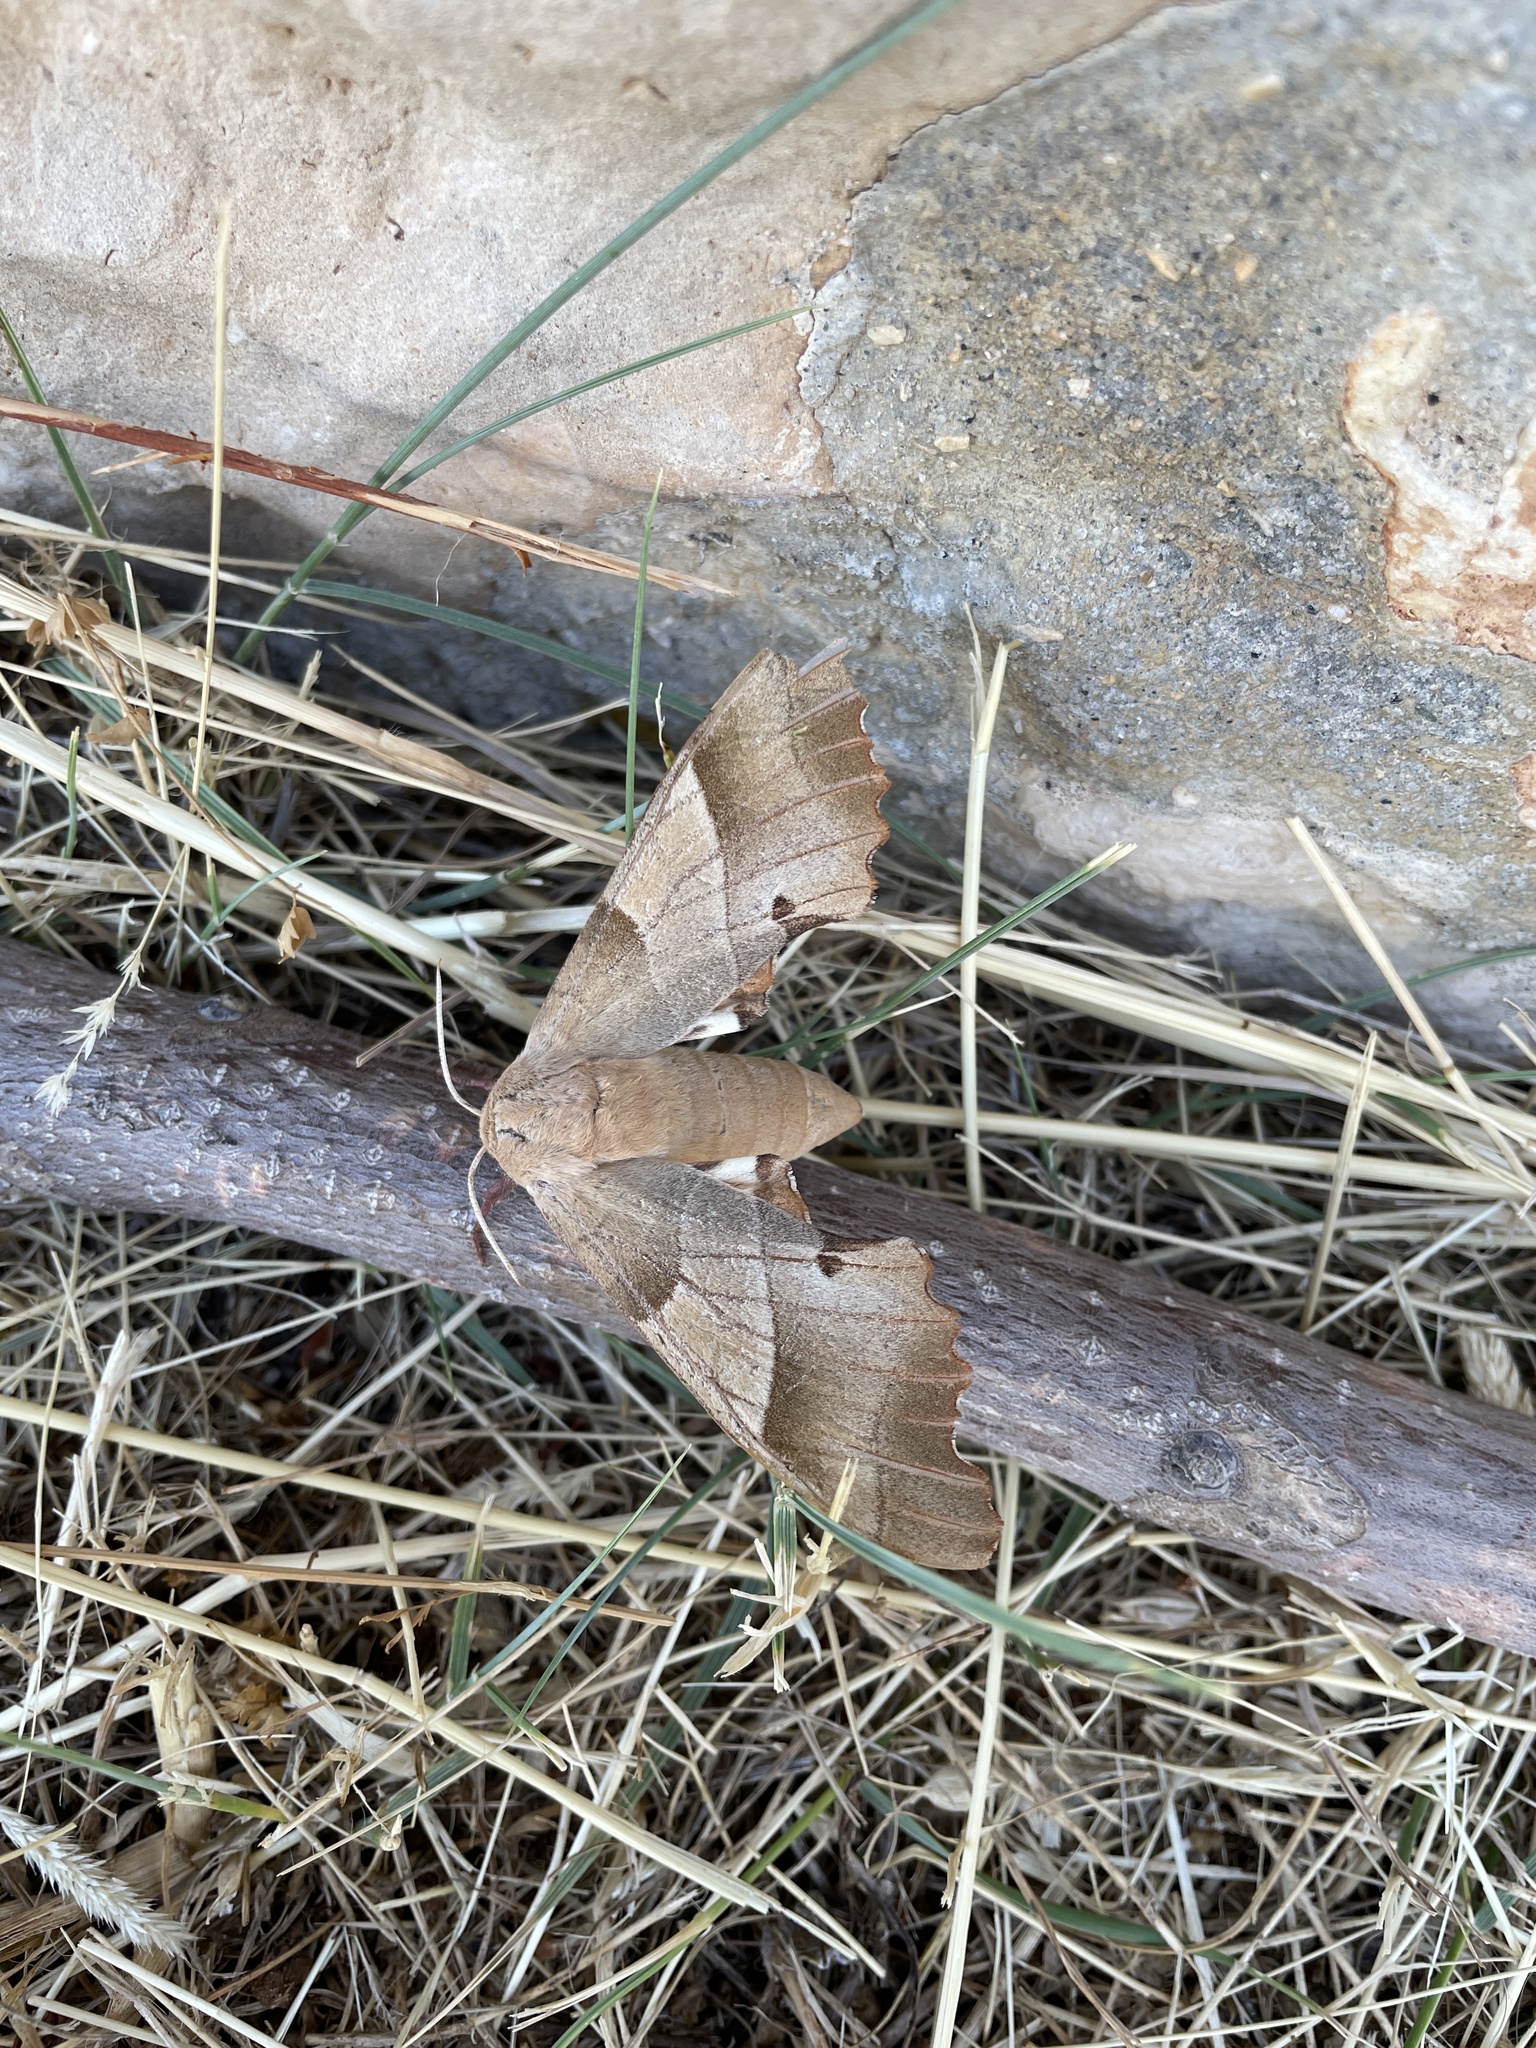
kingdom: Animalia
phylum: Arthropoda
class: Insecta
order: Lepidoptera
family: Sphingidae
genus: Marumba
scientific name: Marumba quercus
